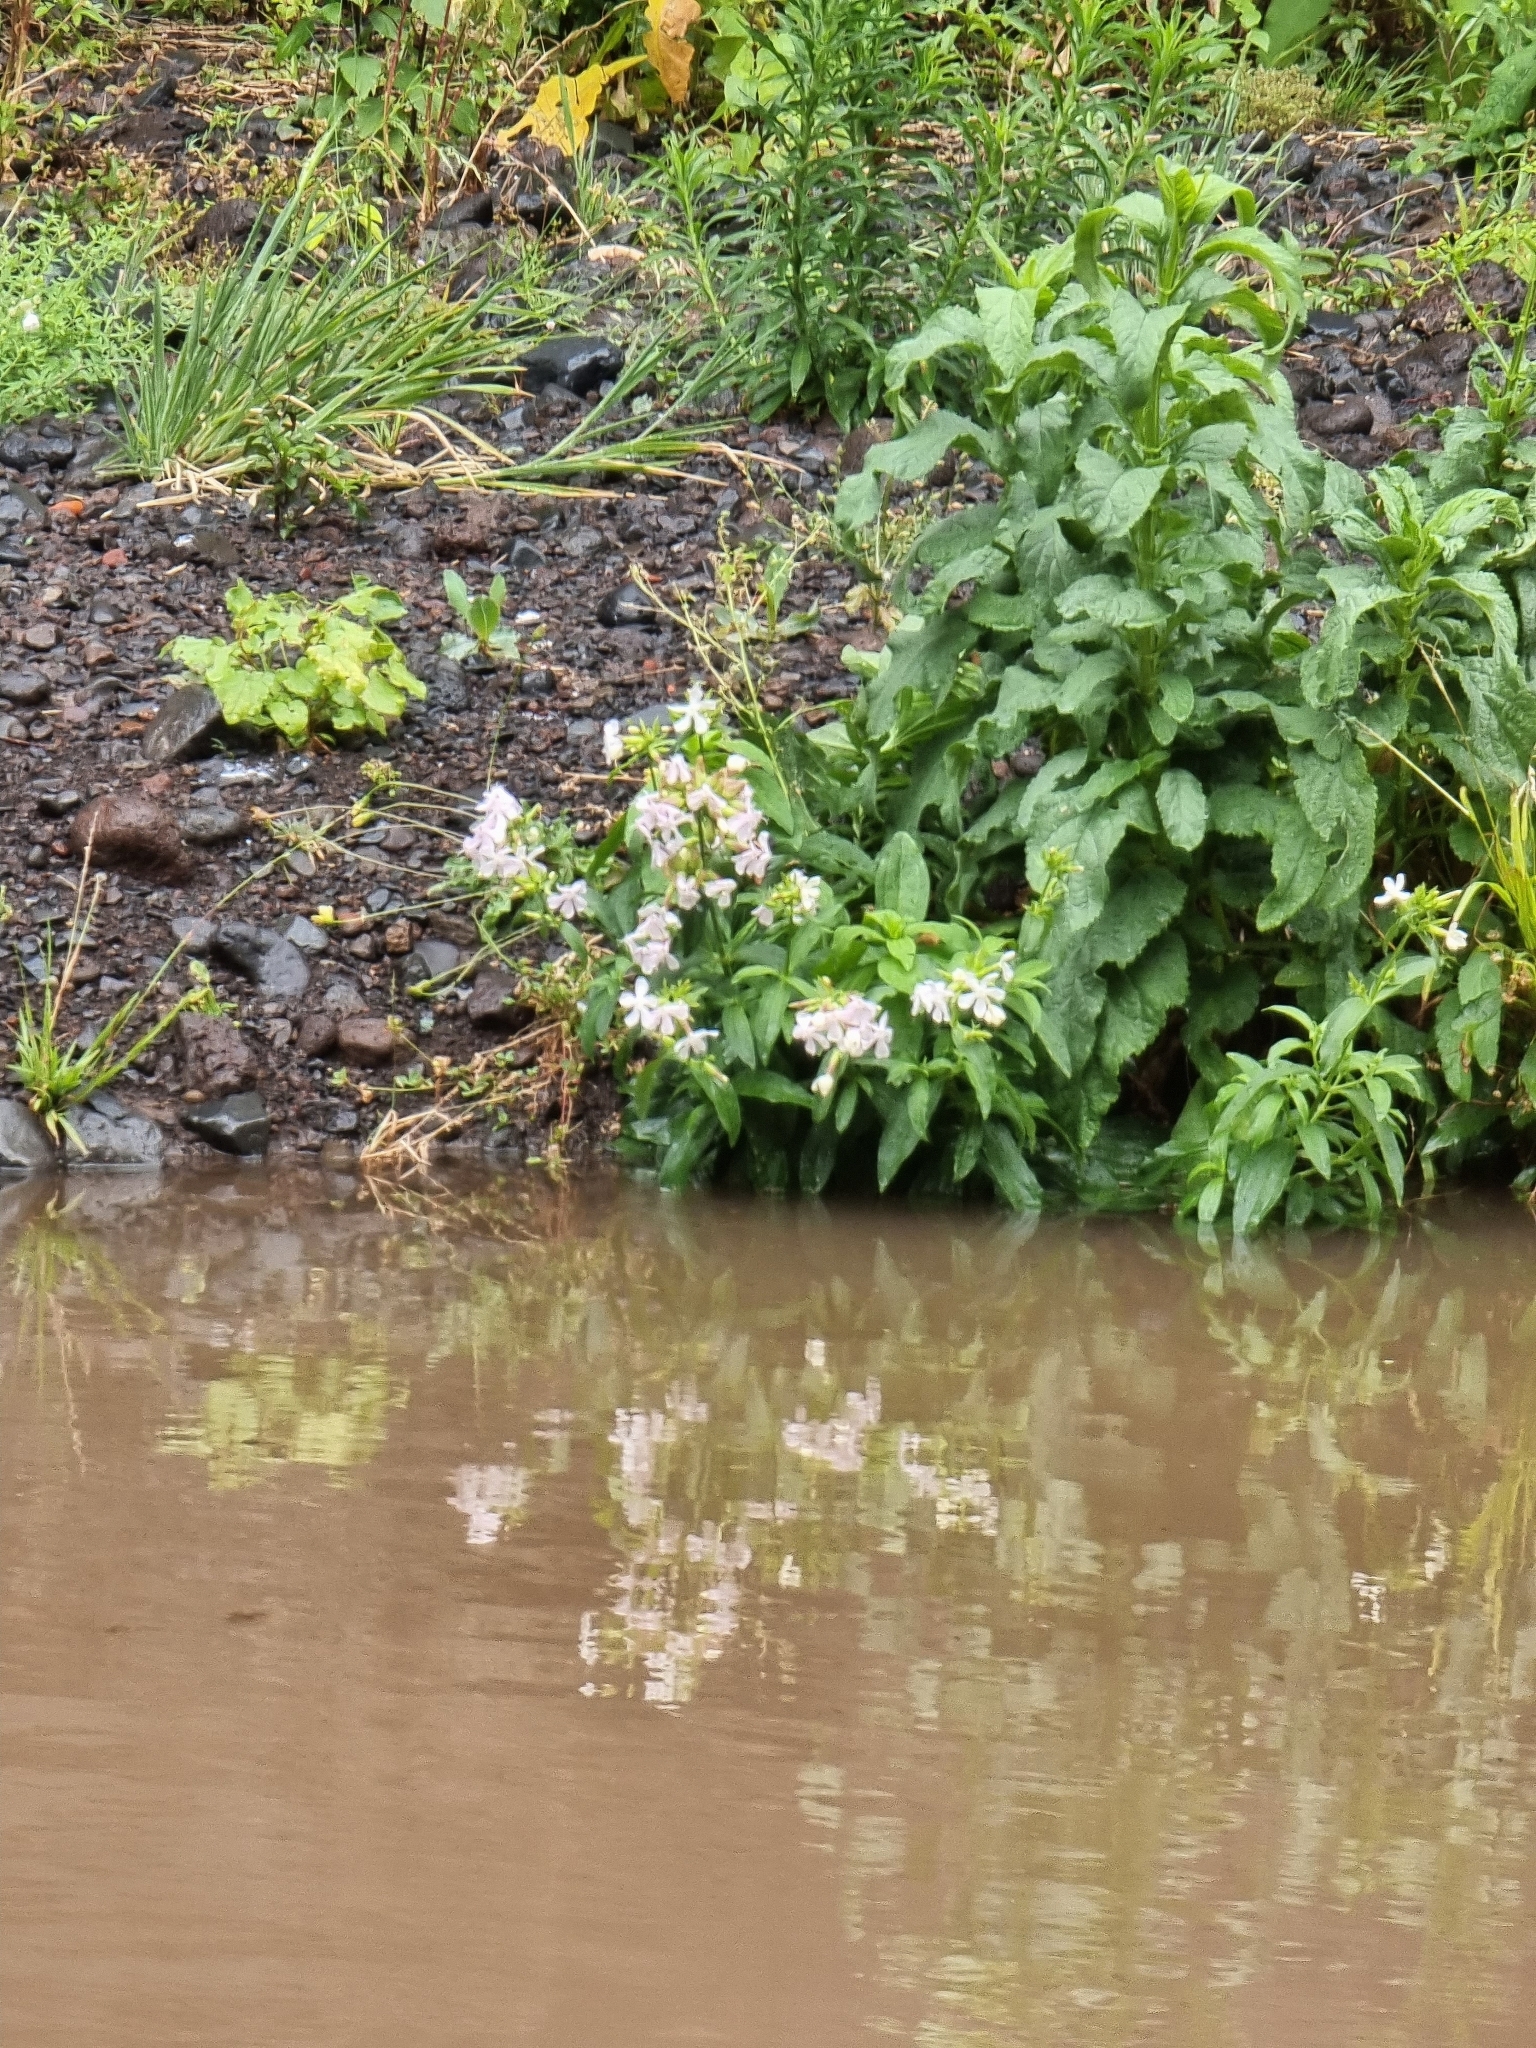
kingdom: Plantae
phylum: Tracheophyta
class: Magnoliopsida
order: Caryophyllales
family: Caryophyllaceae
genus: Saponaria
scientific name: Saponaria officinalis
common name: Soapwort
